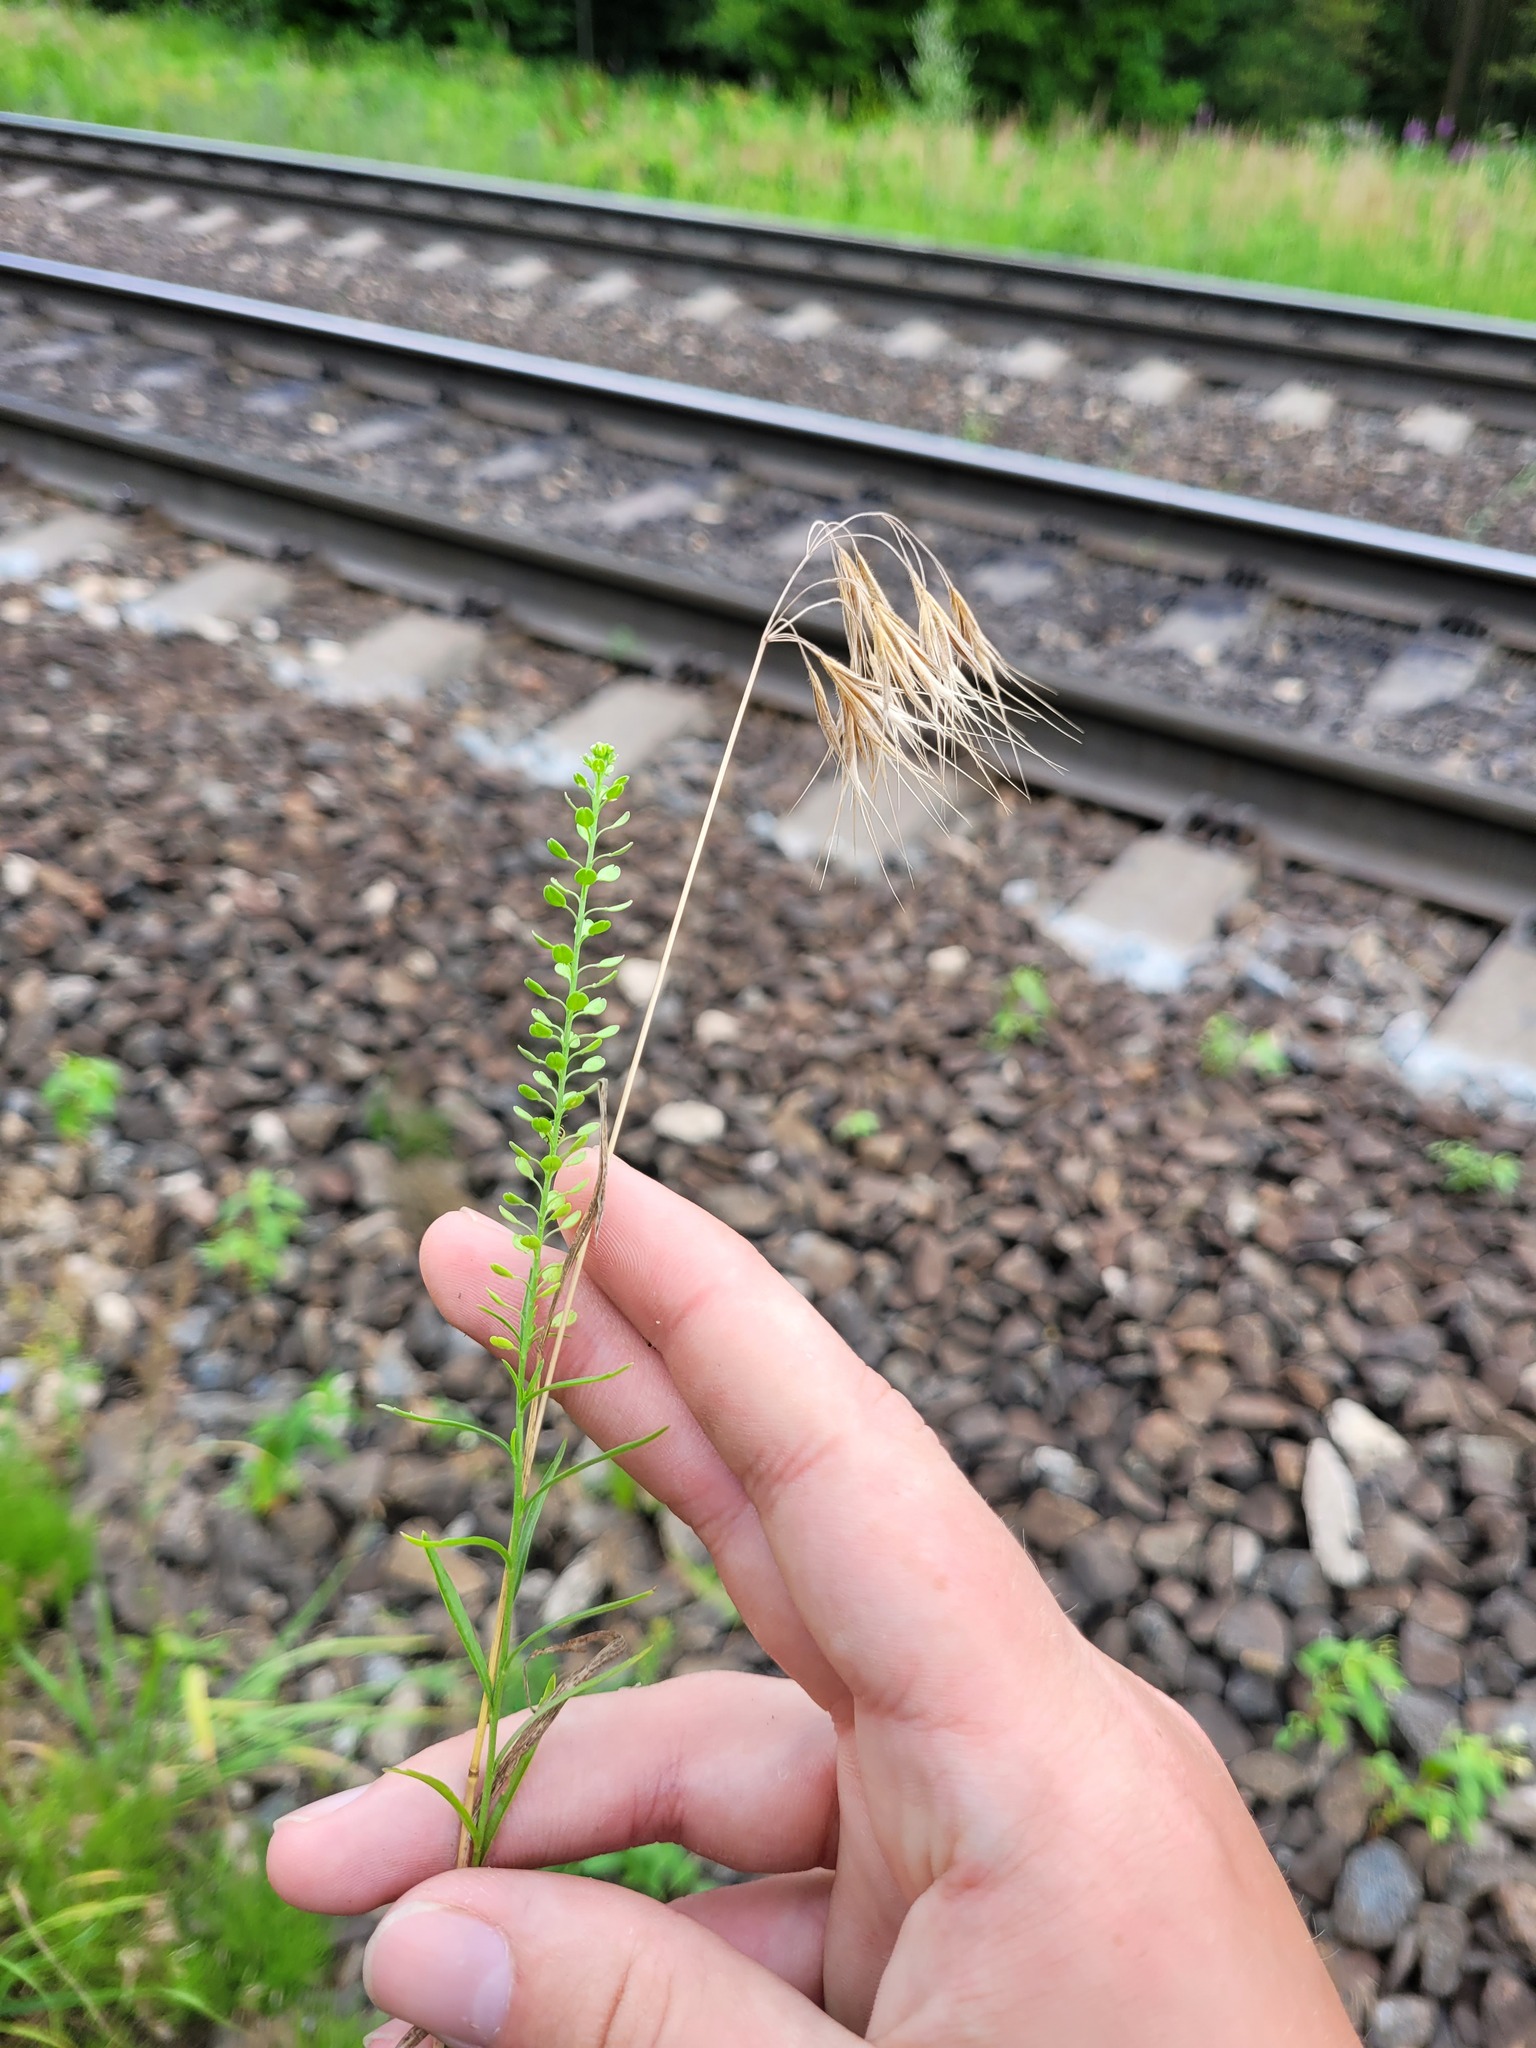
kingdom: Plantae
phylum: Tracheophyta
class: Liliopsida
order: Poales
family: Poaceae
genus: Bromus
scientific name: Bromus tectorum
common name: Cheatgrass
